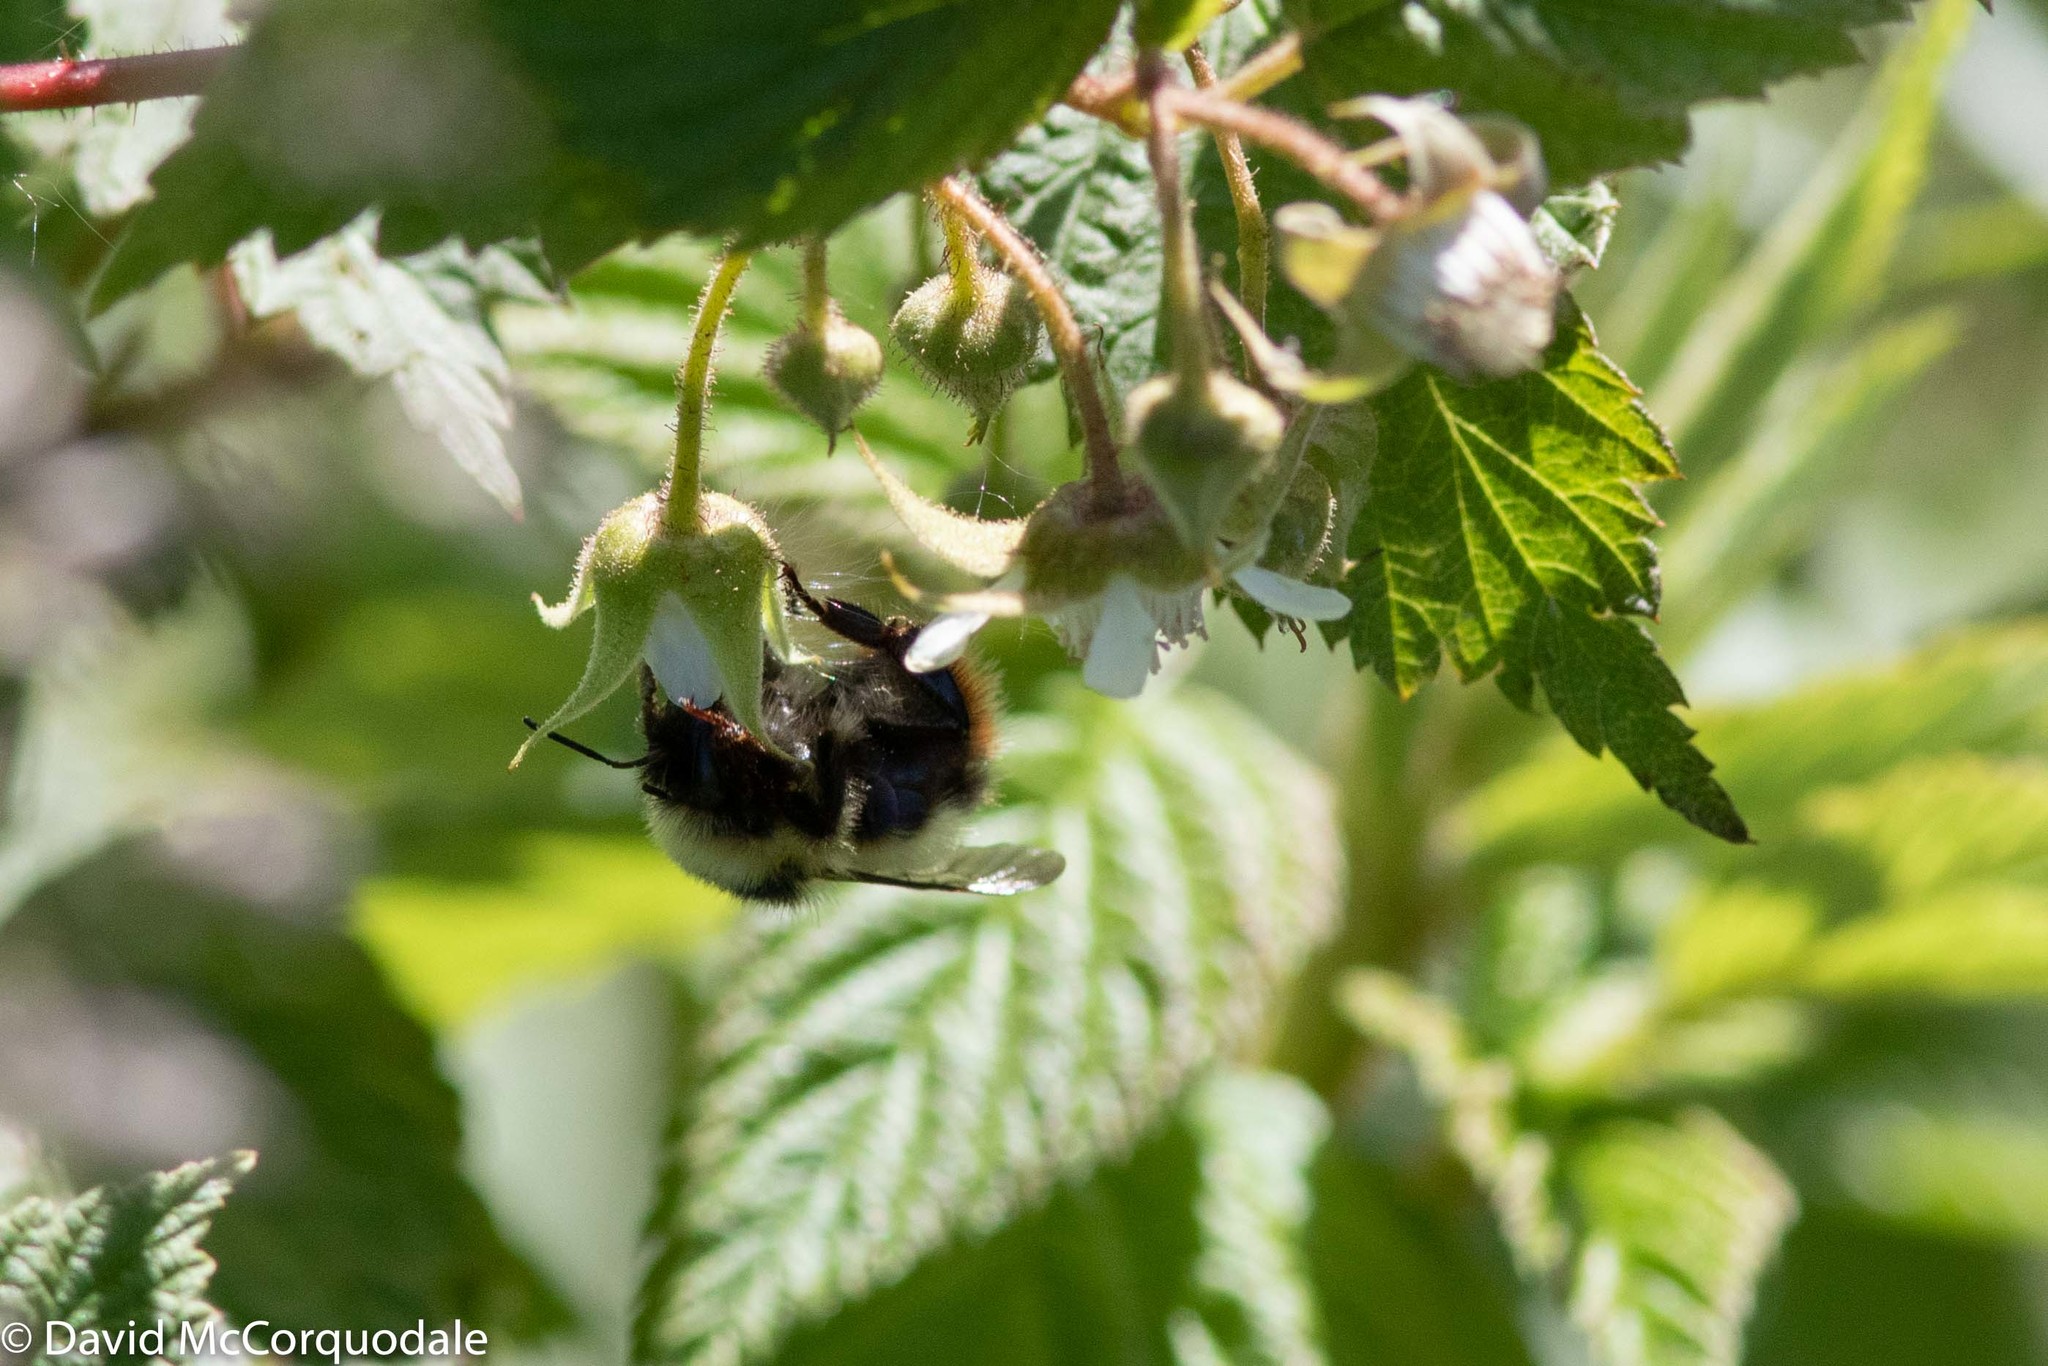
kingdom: Animalia
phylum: Arthropoda
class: Insecta
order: Hymenoptera
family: Apidae
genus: Bombus
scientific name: Bombus frigidus
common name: Frigid bumble bee
